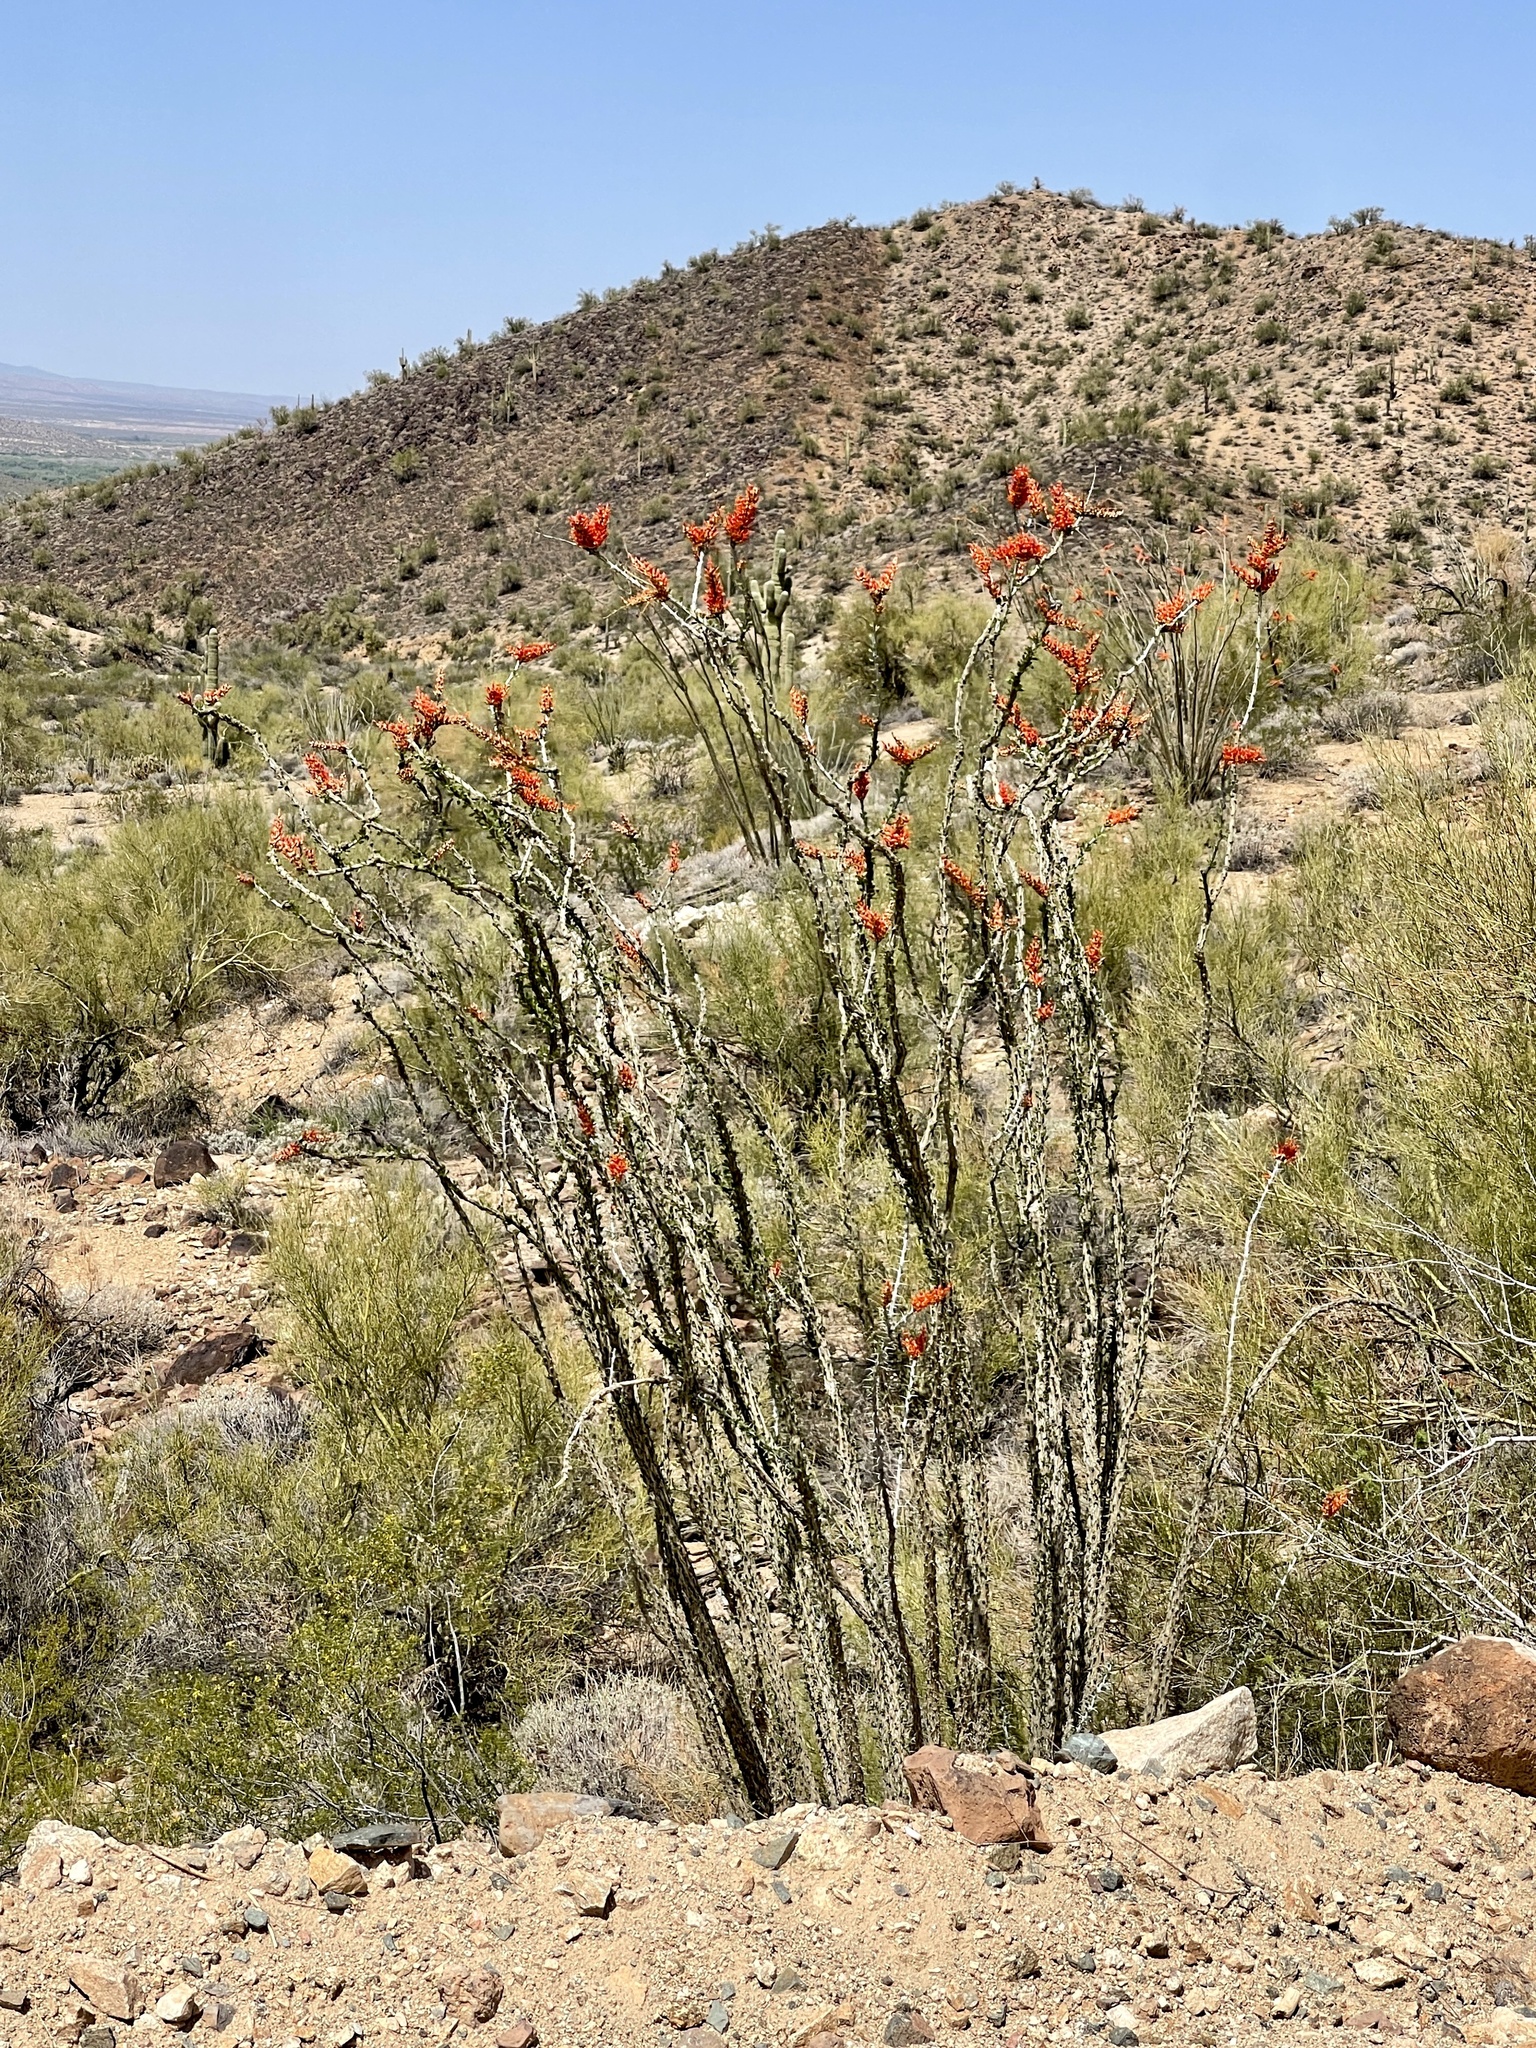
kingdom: Plantae
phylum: Tracheophyta
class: Magnoliopsida
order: Ericales
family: Fouquieriaceae
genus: Fouquieria
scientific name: Fouquieria splendens
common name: Vine-cactus
